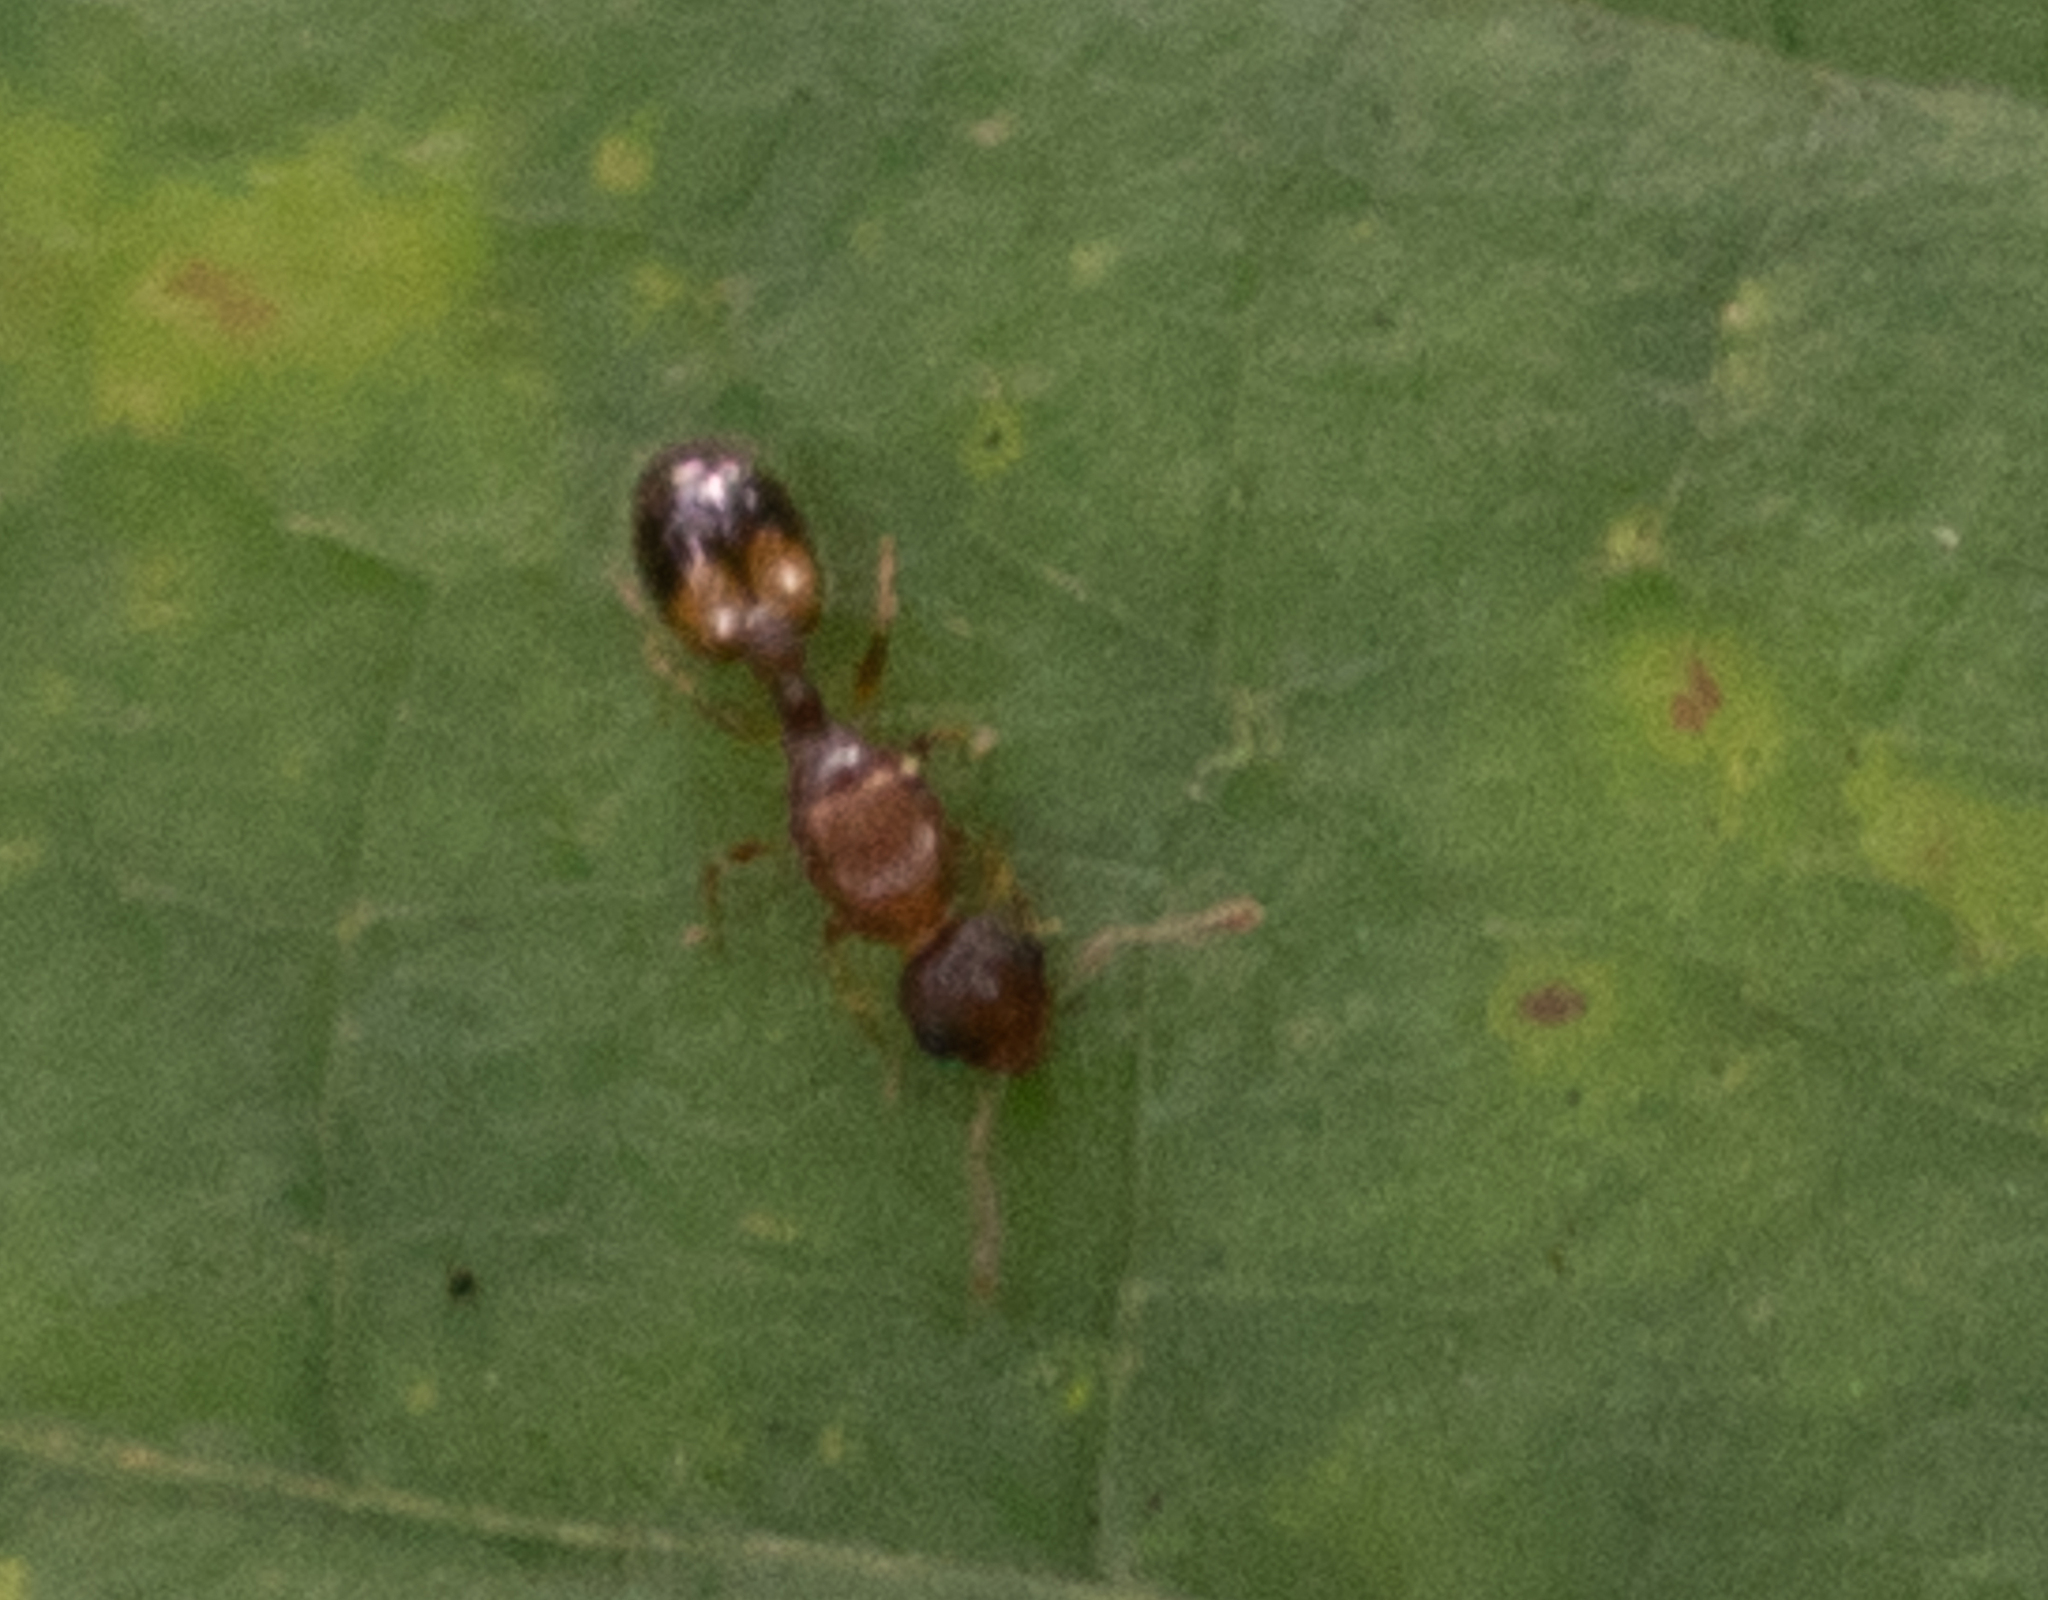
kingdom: Animalia
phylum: Arthropoda
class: Insecta
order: Hymenoptera
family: Formicidae
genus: Temnothorax
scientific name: Temnothorax
